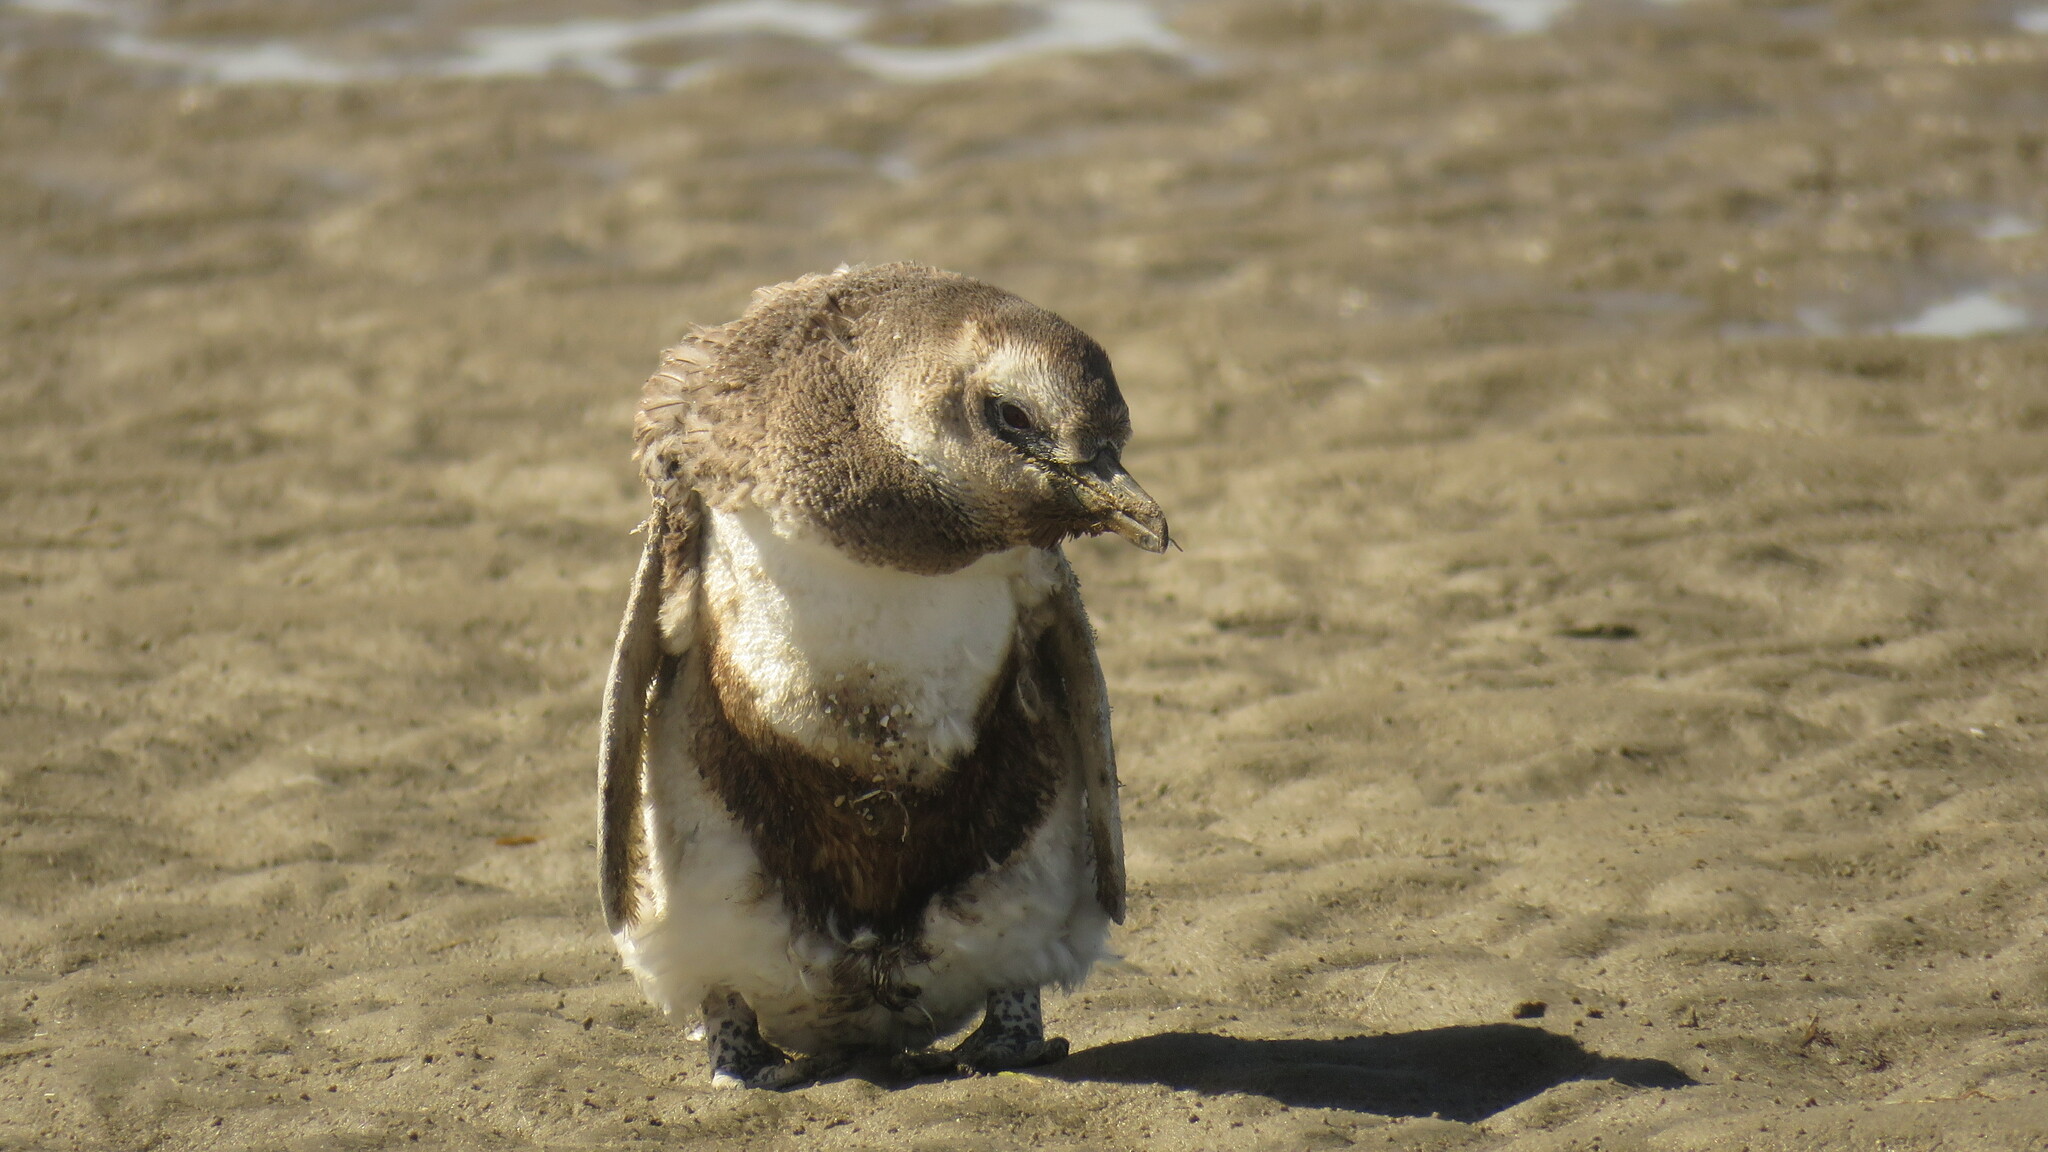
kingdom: Animalia
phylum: Chordata
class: Aves
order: Sphenisciformes
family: Spheniscidae
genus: Spheniscus
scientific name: Spheniscus magellanicus
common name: Magellanic penguin
